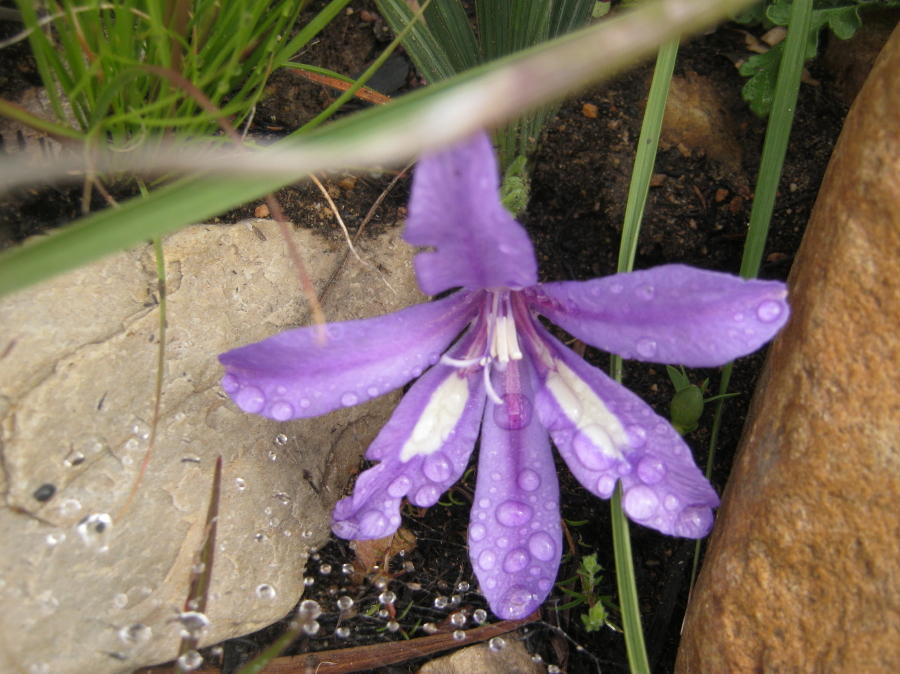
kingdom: Plantae
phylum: Tracheophyta
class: Liliopsida
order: Asparagales
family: Iridaceae
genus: Babiana
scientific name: Babiana sambucina
